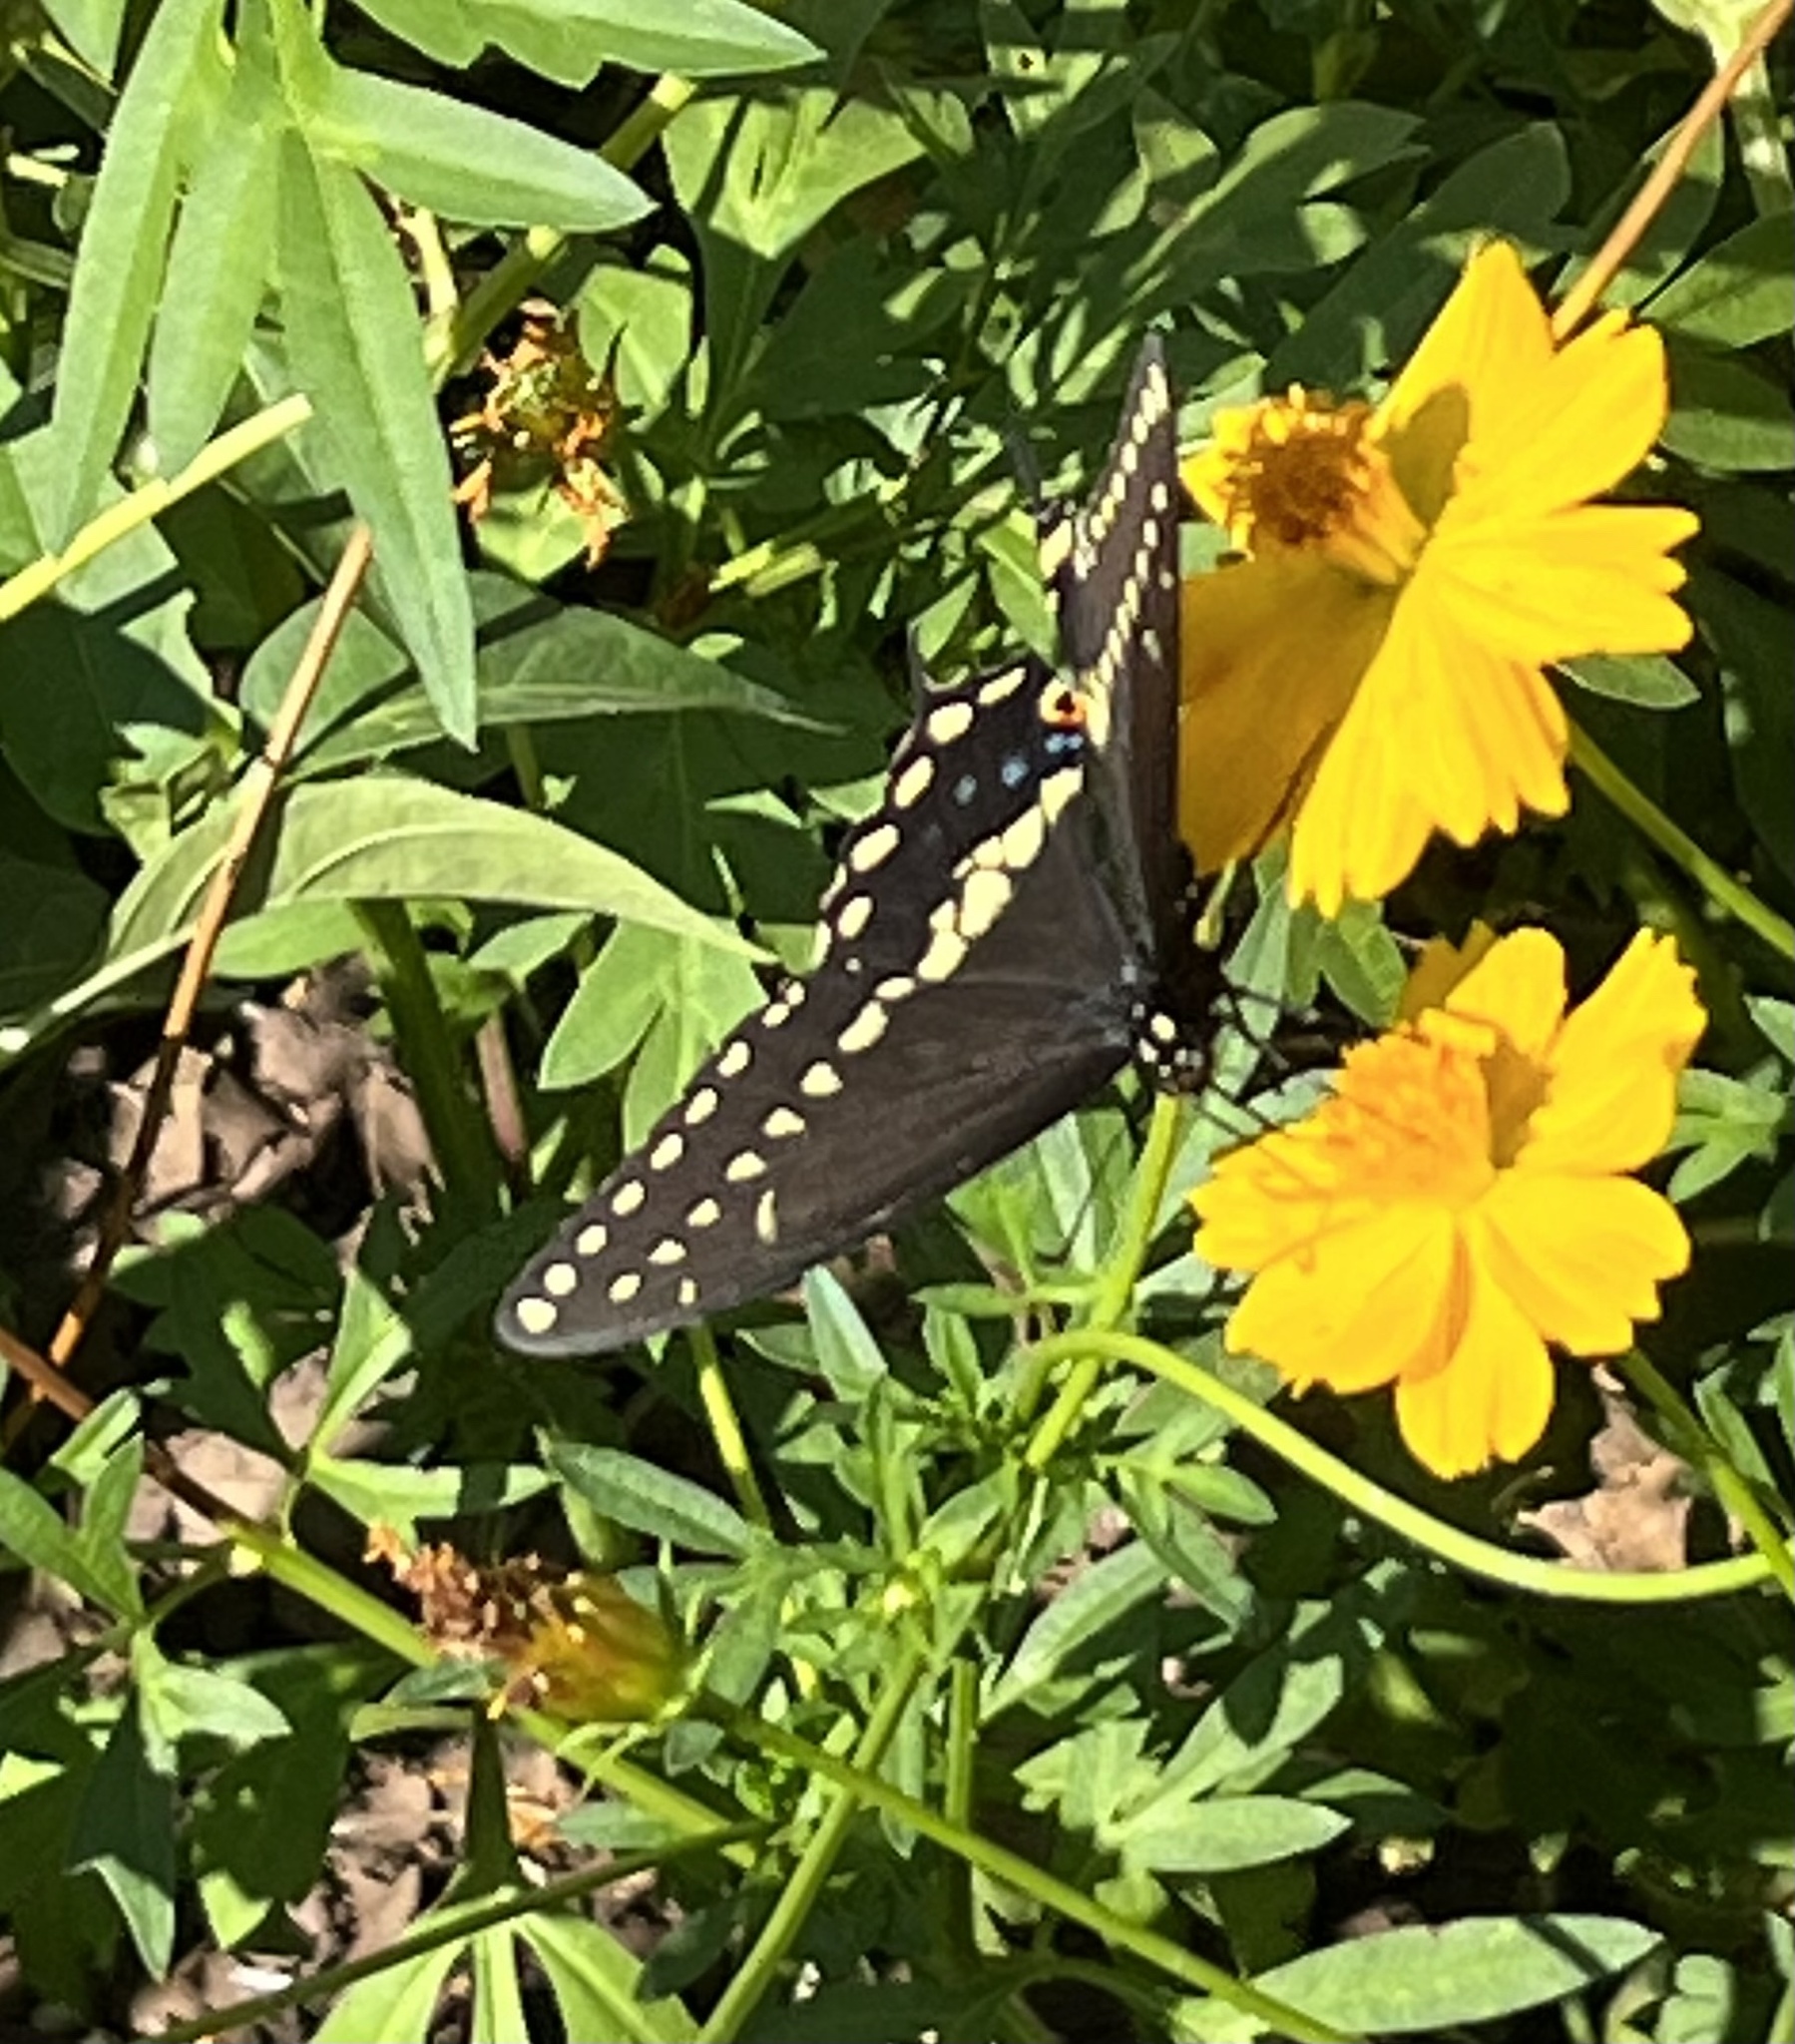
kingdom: Animalia
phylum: Arthropoda
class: Insecta
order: Lepidoptera
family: Papilionidae
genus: Papilio
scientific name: Papilio polyxenes
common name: Black swallowtail
